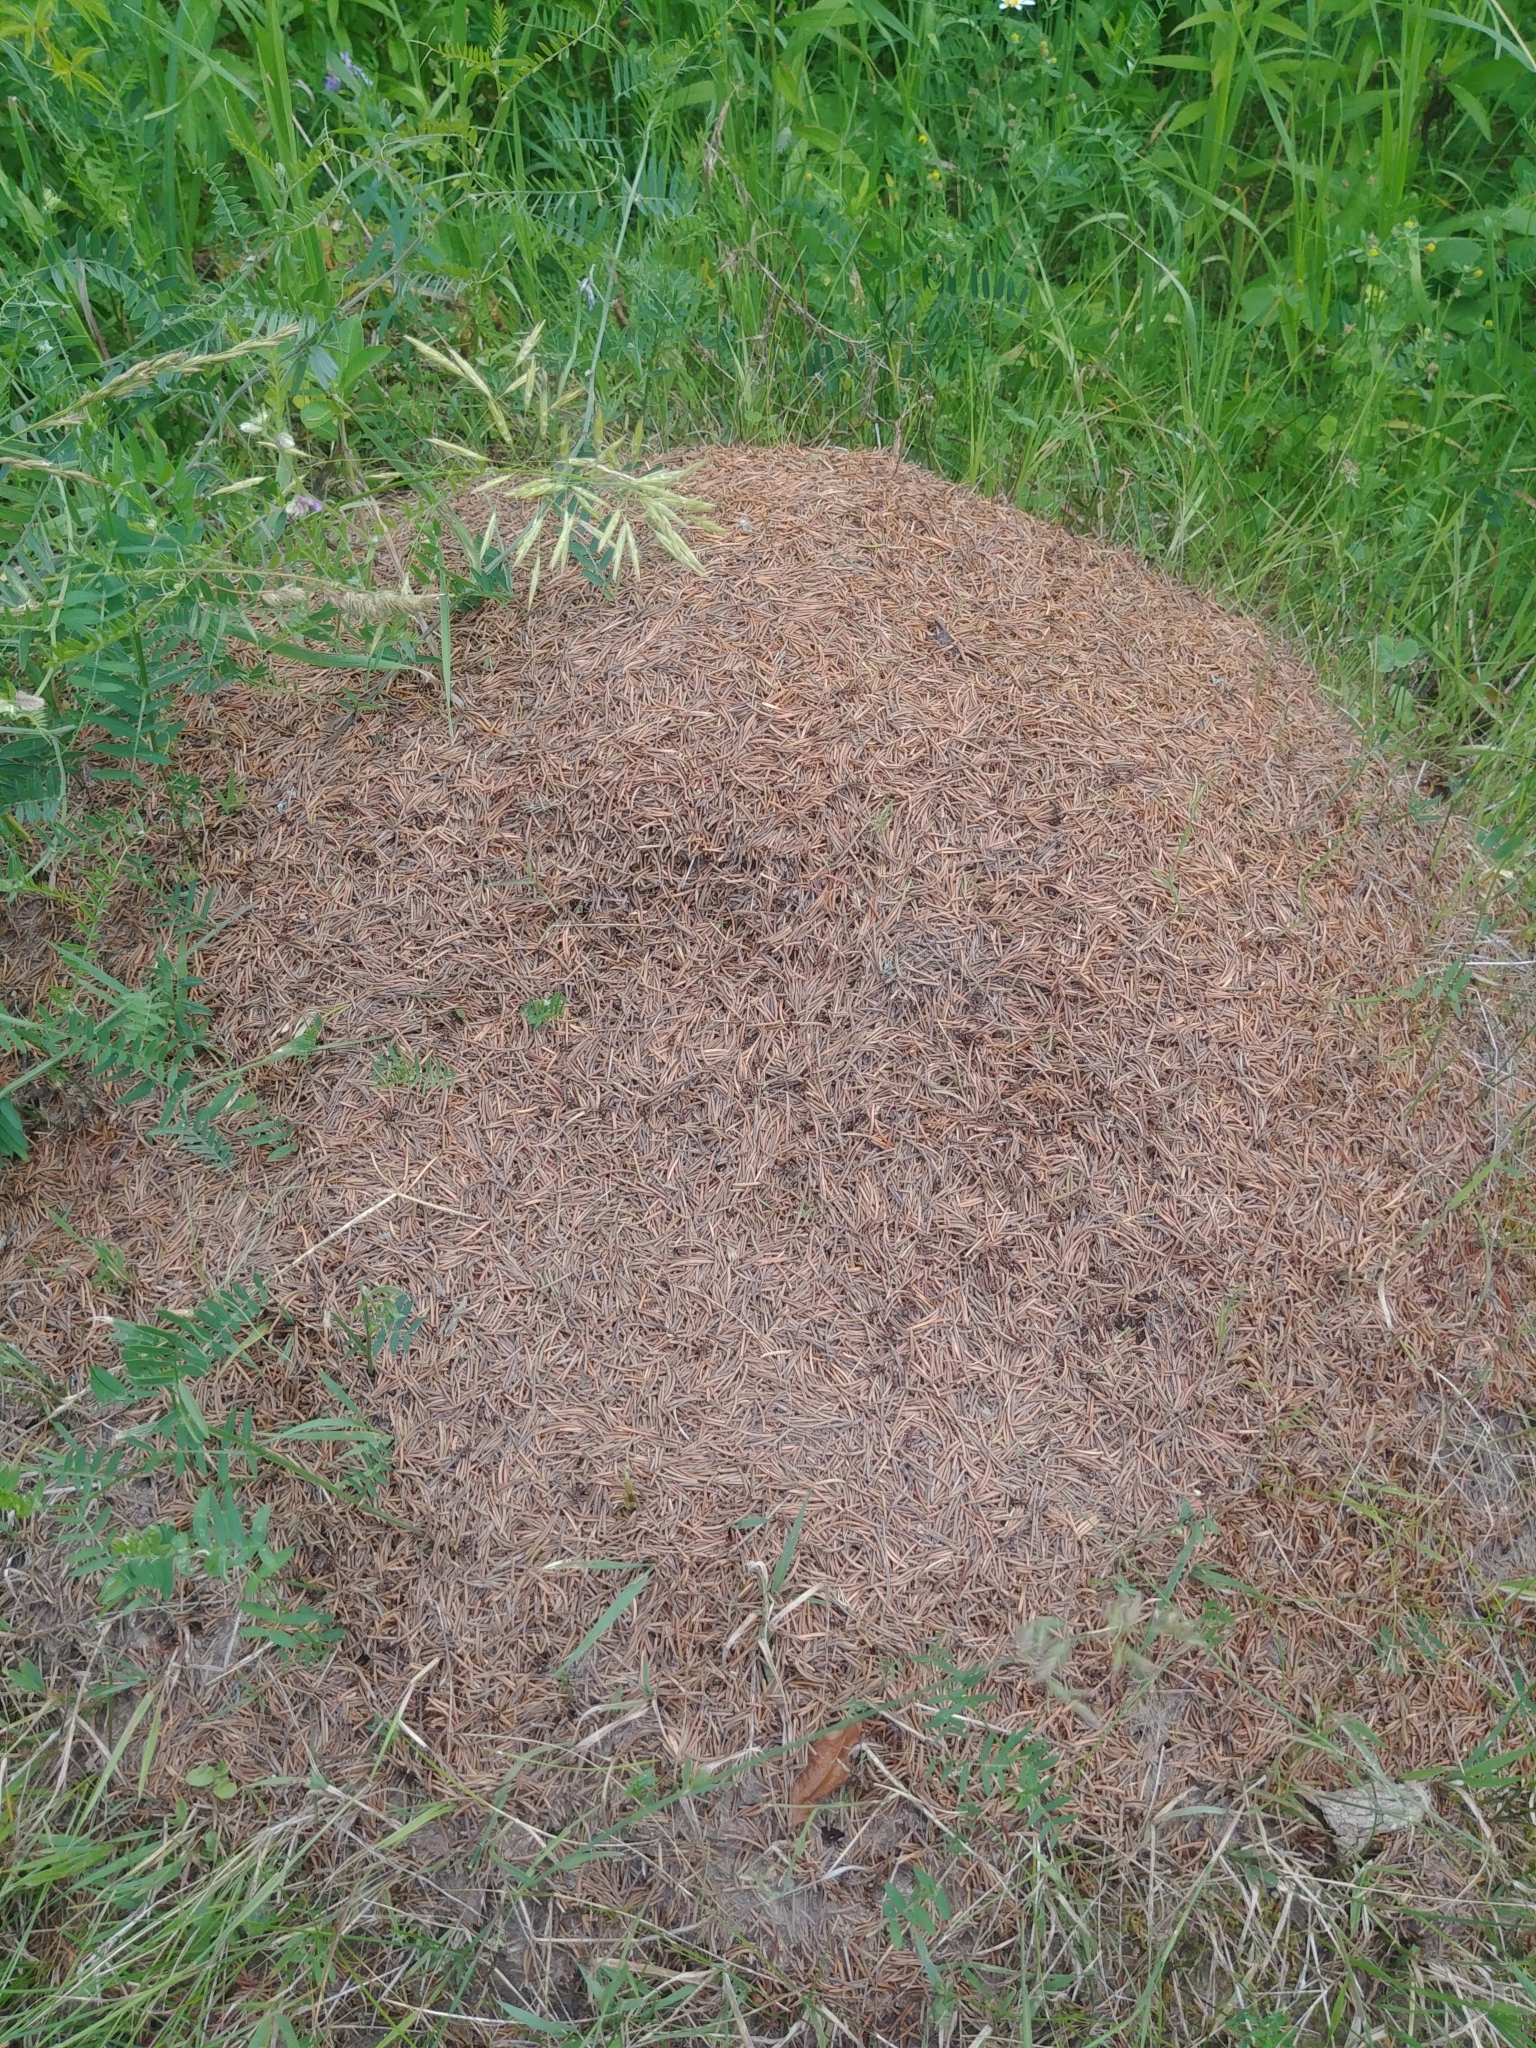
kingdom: Animalia
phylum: Arthropoda
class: Insecta
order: Hymenoptera
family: Formicidae
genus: Formica
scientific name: Formica ulkei
